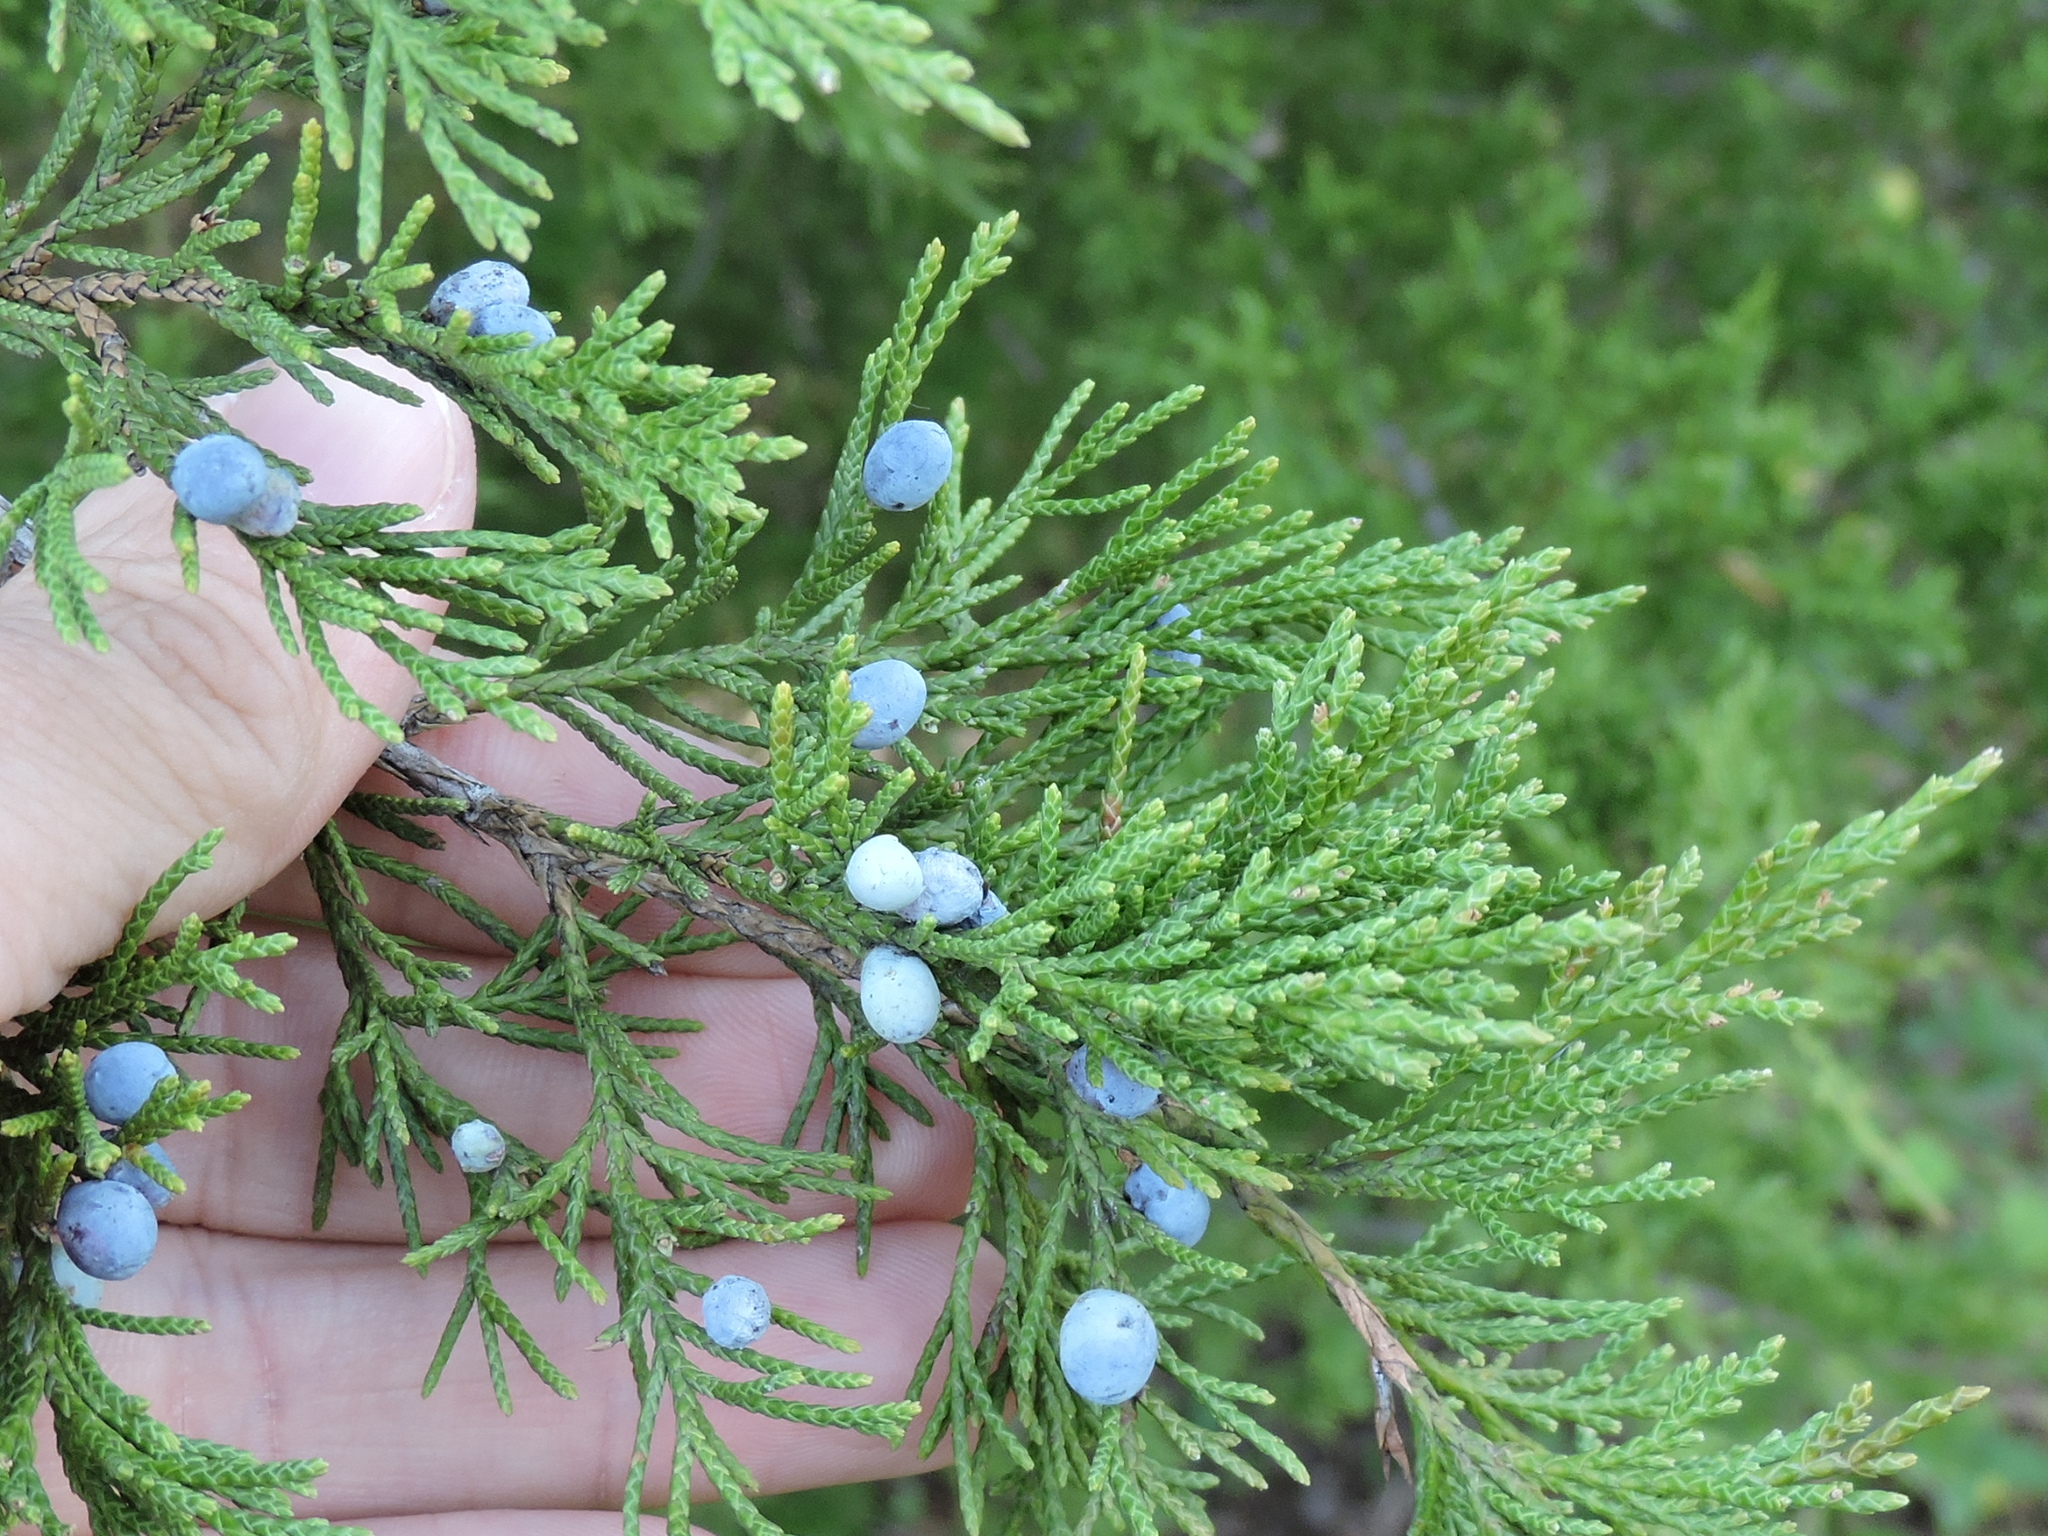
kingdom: Plantae
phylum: Tracheophyta
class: Pinopsida
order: Pinales
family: Cupressaceae
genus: Juniperus
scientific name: Juniperus virginiana
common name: Red juniper
